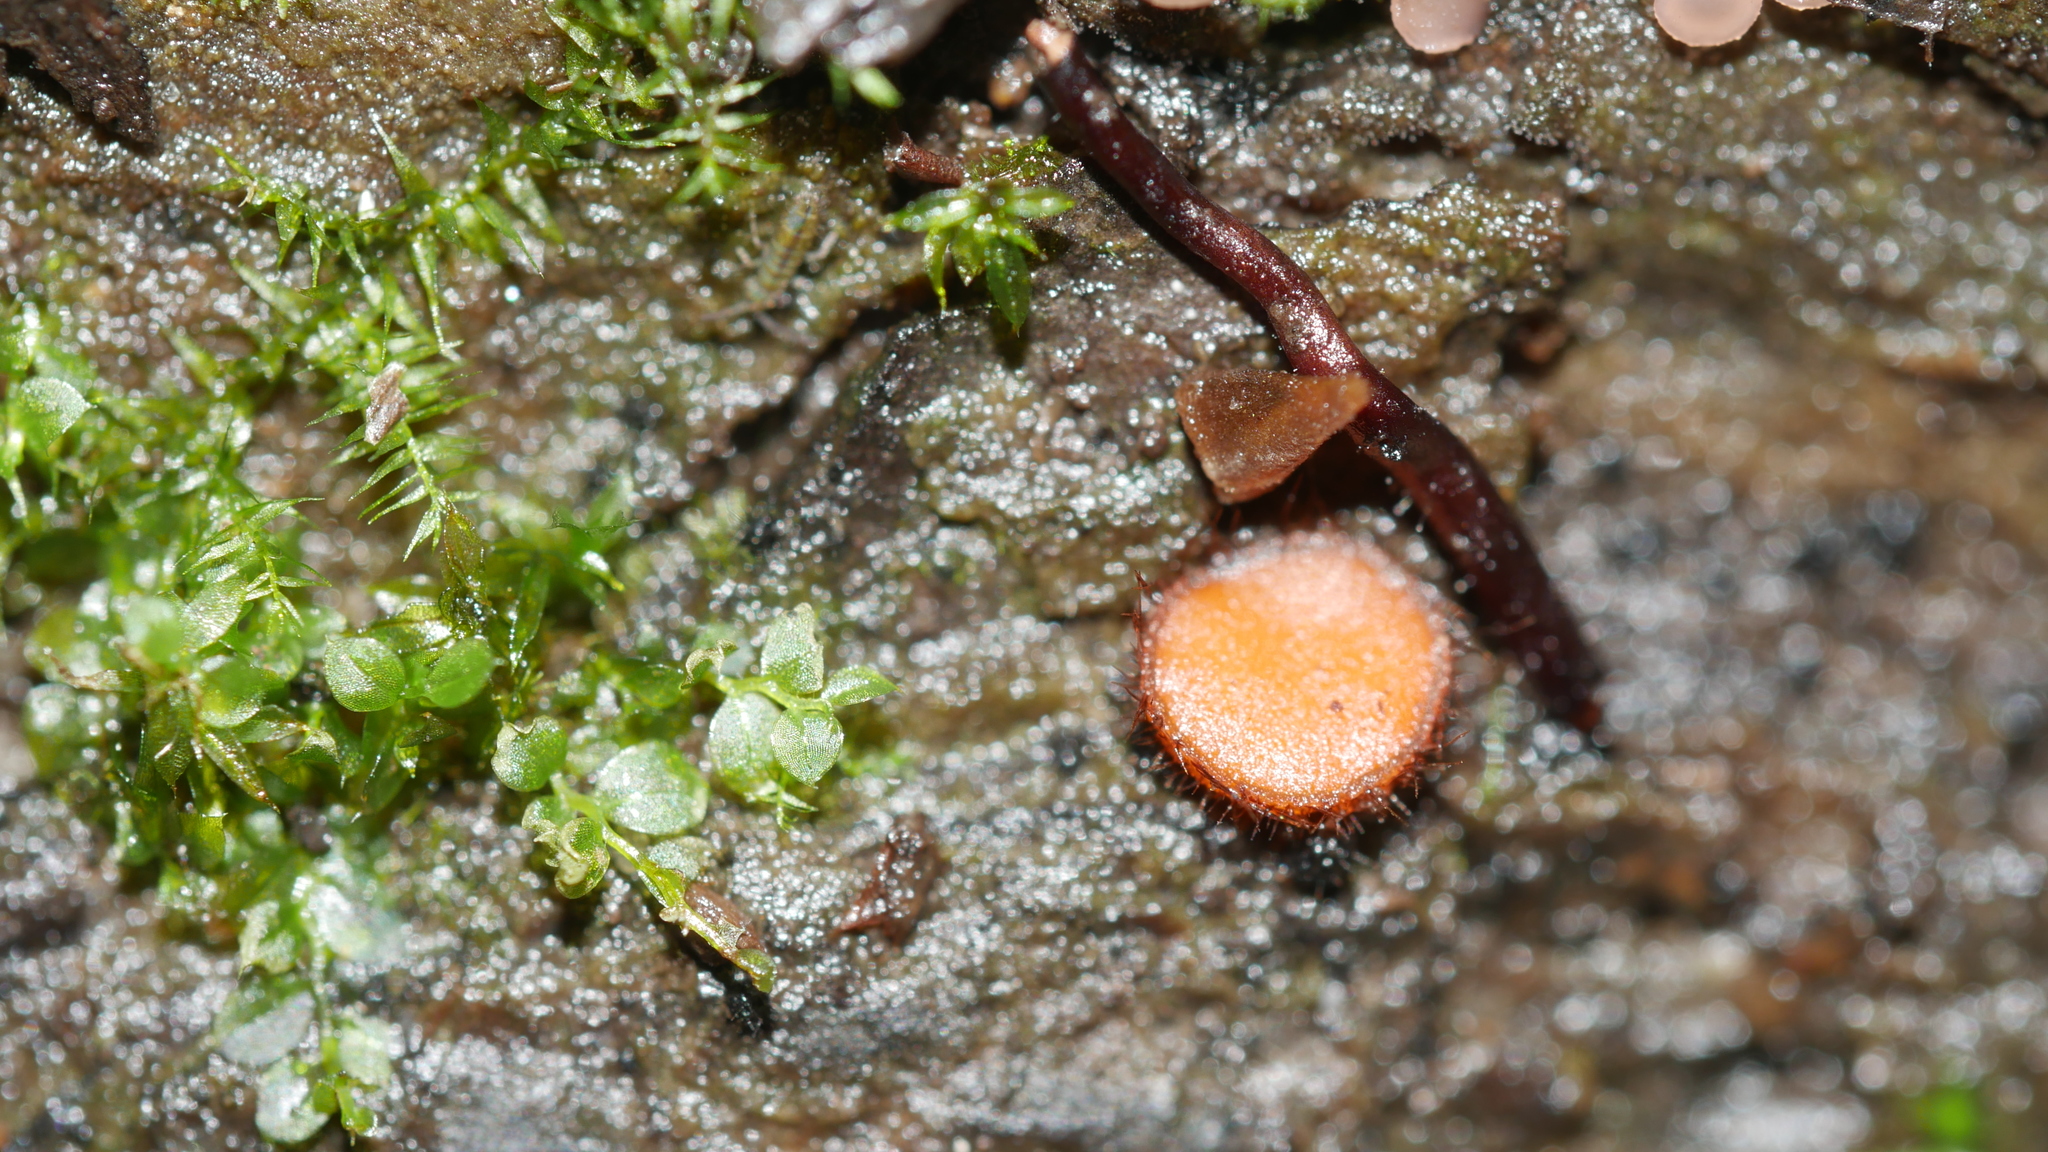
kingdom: Fungi
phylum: Ascomycota
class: Pezizomycetes
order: Pezizales
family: Pyronemataceae
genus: Scutellinia
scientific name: Scutellinia
